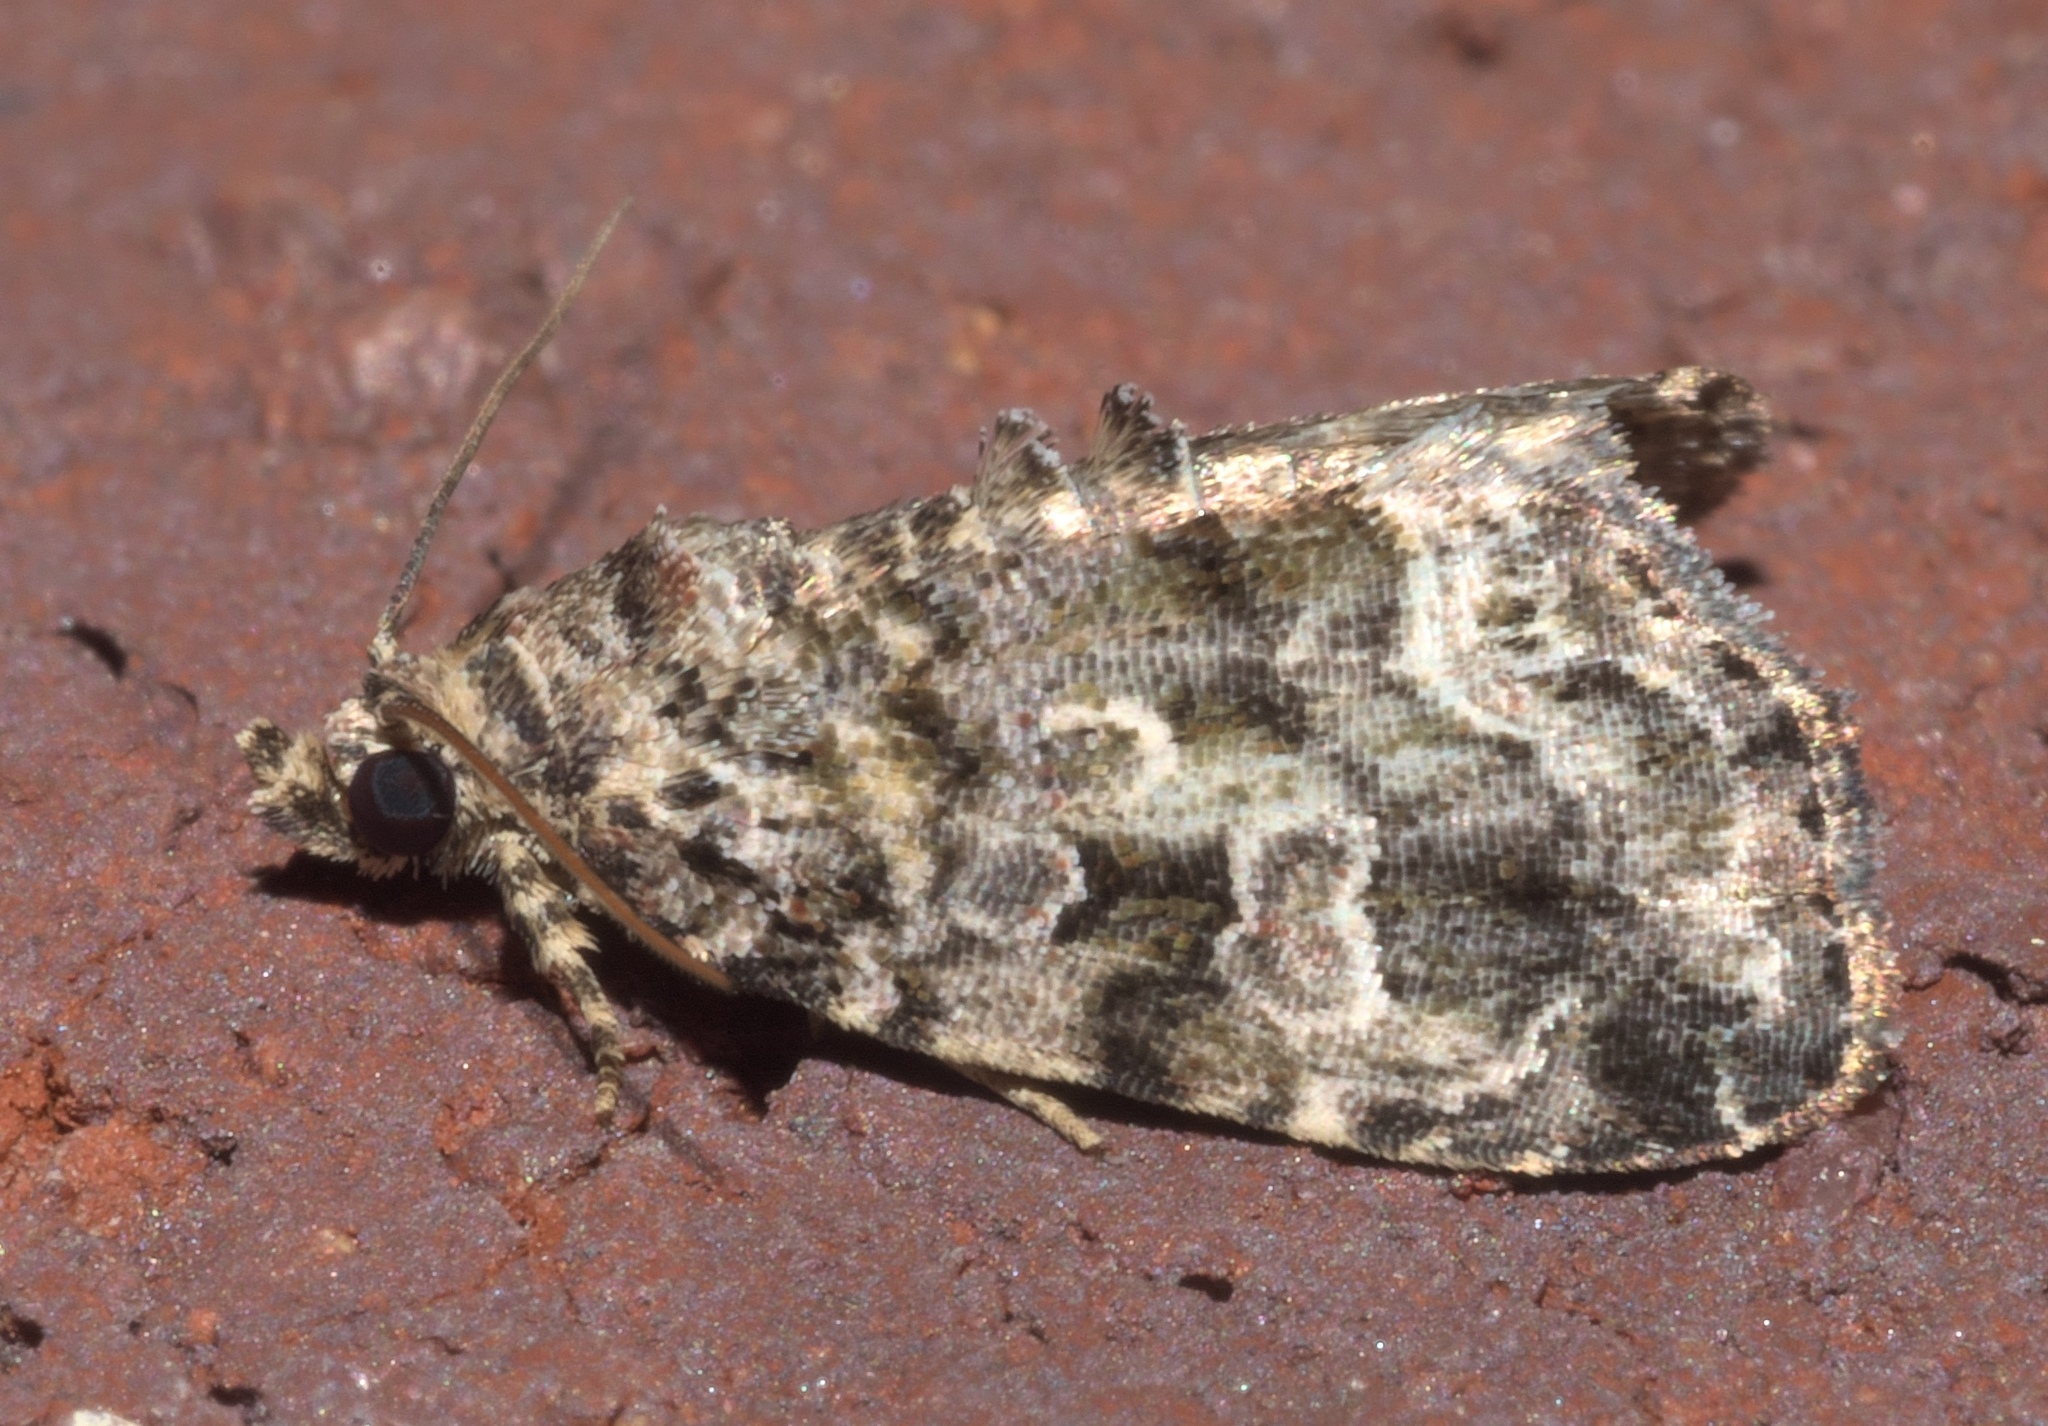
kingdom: Animalia
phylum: Arthropoda
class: Insecta
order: Lepidoptera
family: Noctuidae
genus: Protodeltote
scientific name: Protodeltote muscosula
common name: Large mossy glyph
